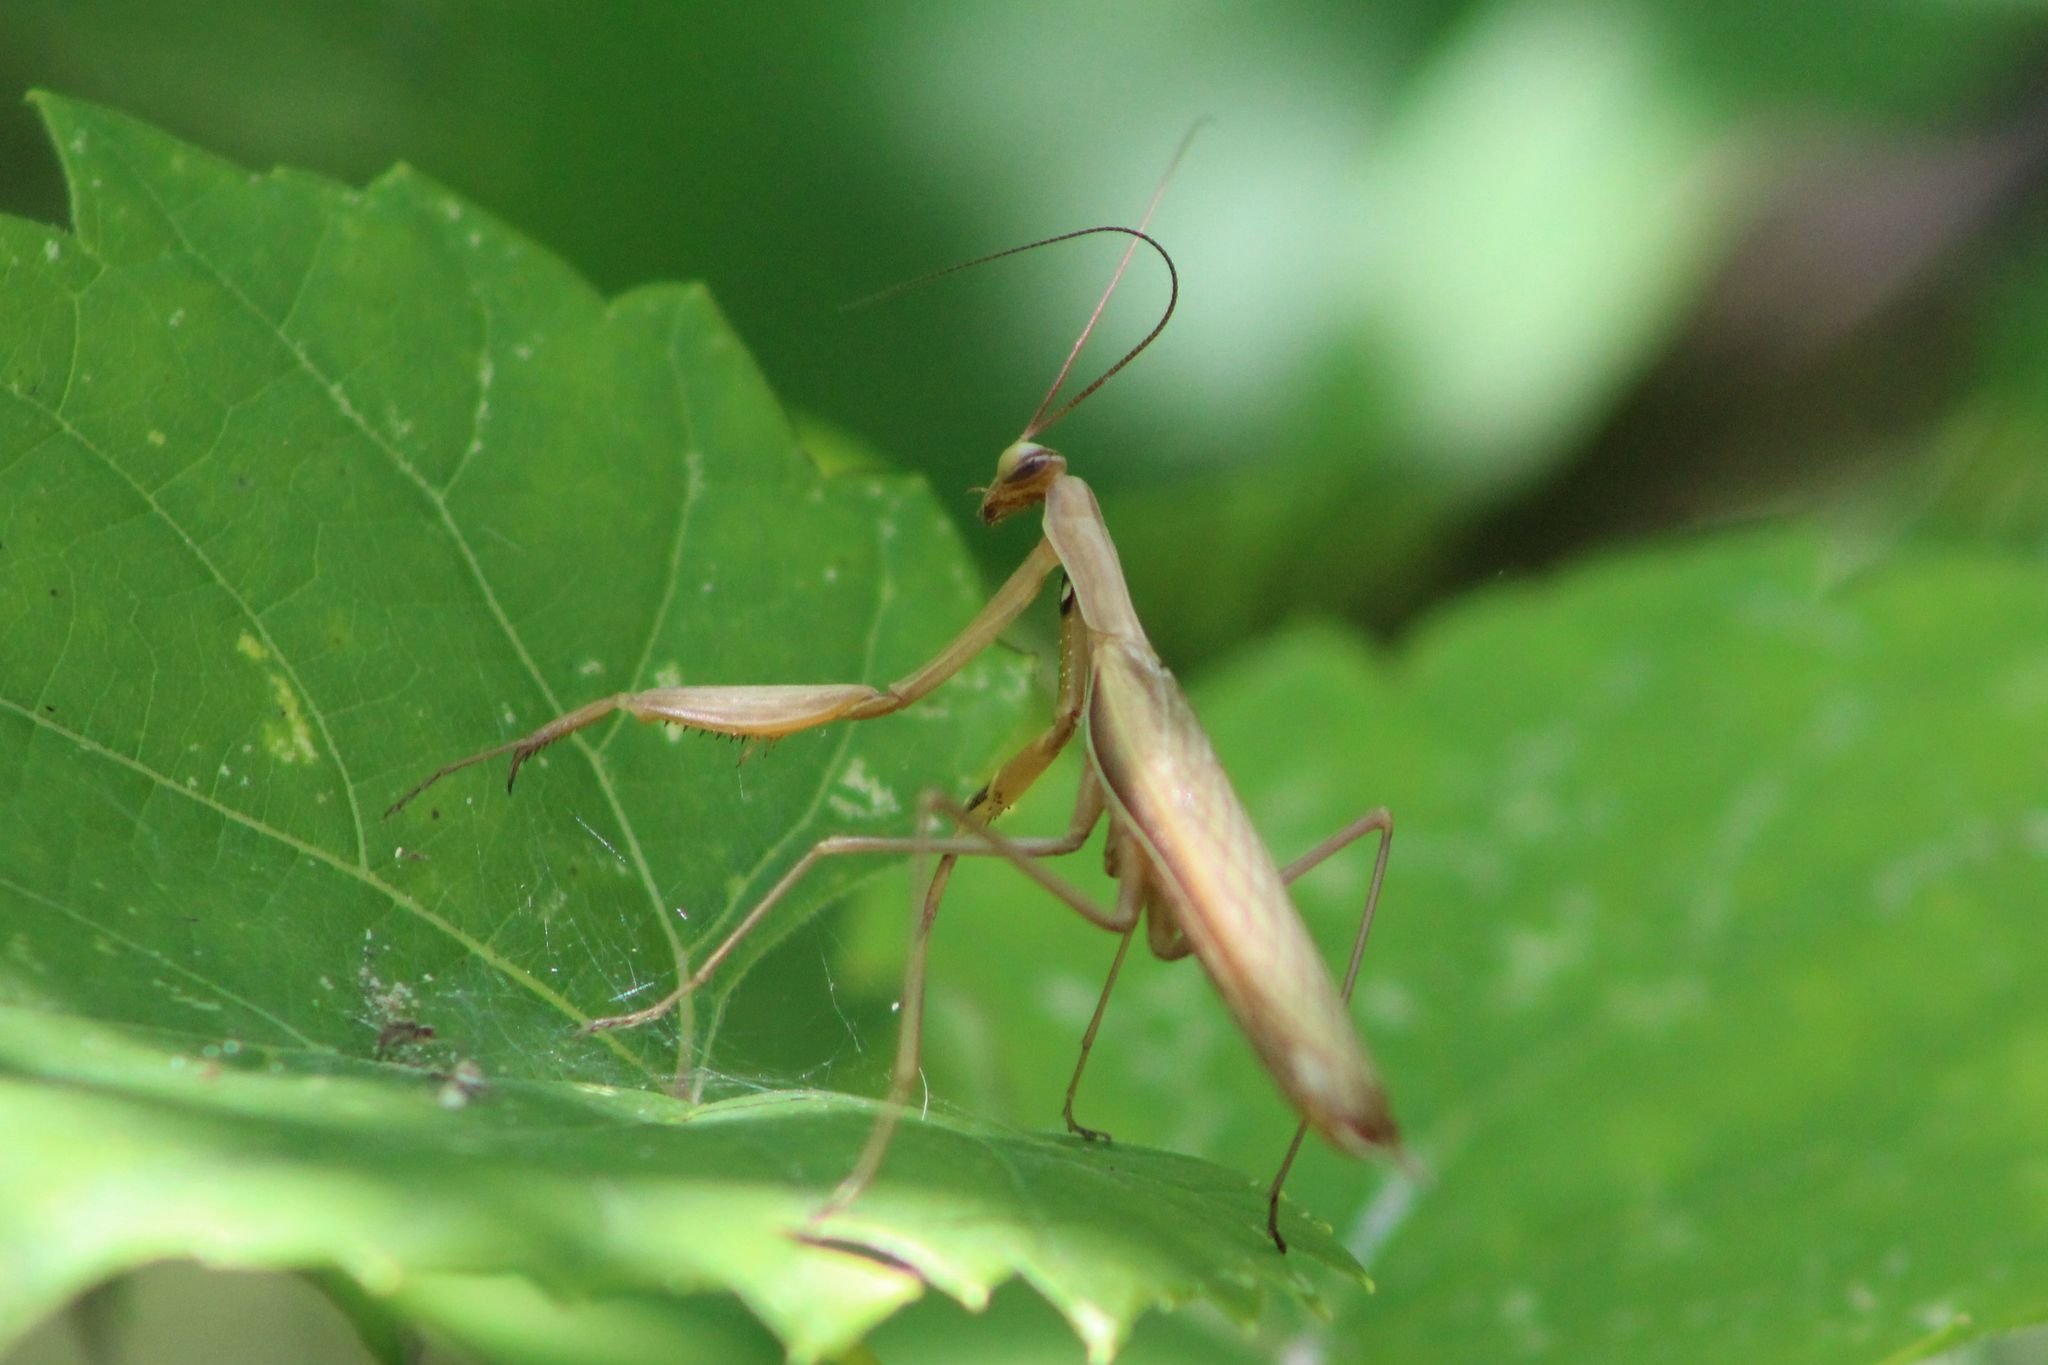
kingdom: Animalia
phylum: Arthropoda
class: Insecta
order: Mantodea
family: Mantidae
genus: Mantis
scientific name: Mantis religiosa
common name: Praying mantis
